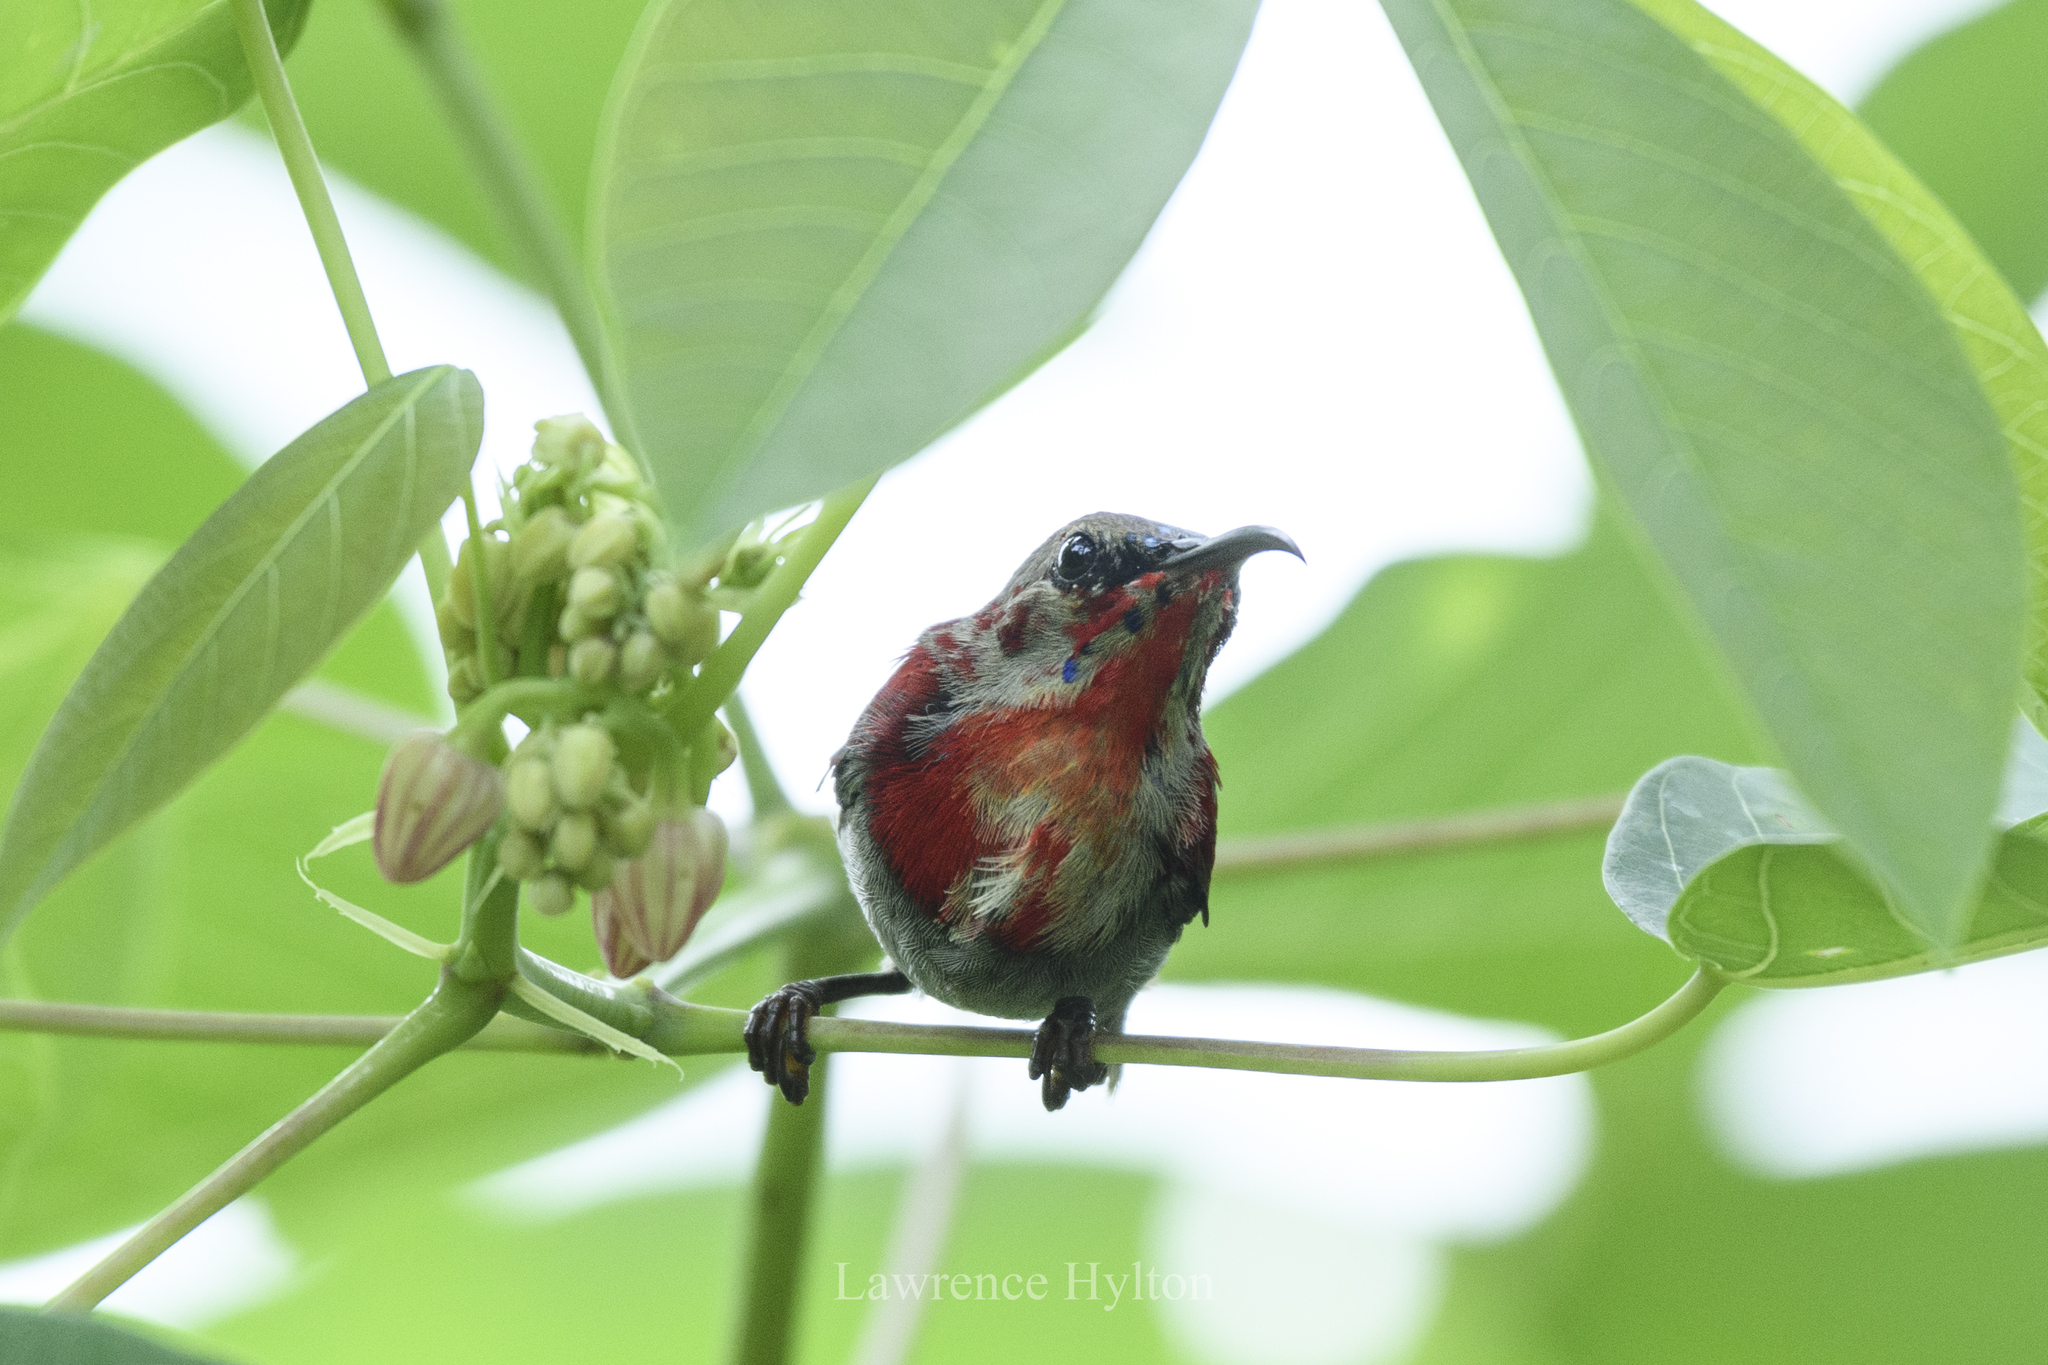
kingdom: Animalia
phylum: Chordata
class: Aves
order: Passeriformes
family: Nectariniidae
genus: Aethopyga
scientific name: Aethopyga siparaja
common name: Crimson sunbird
